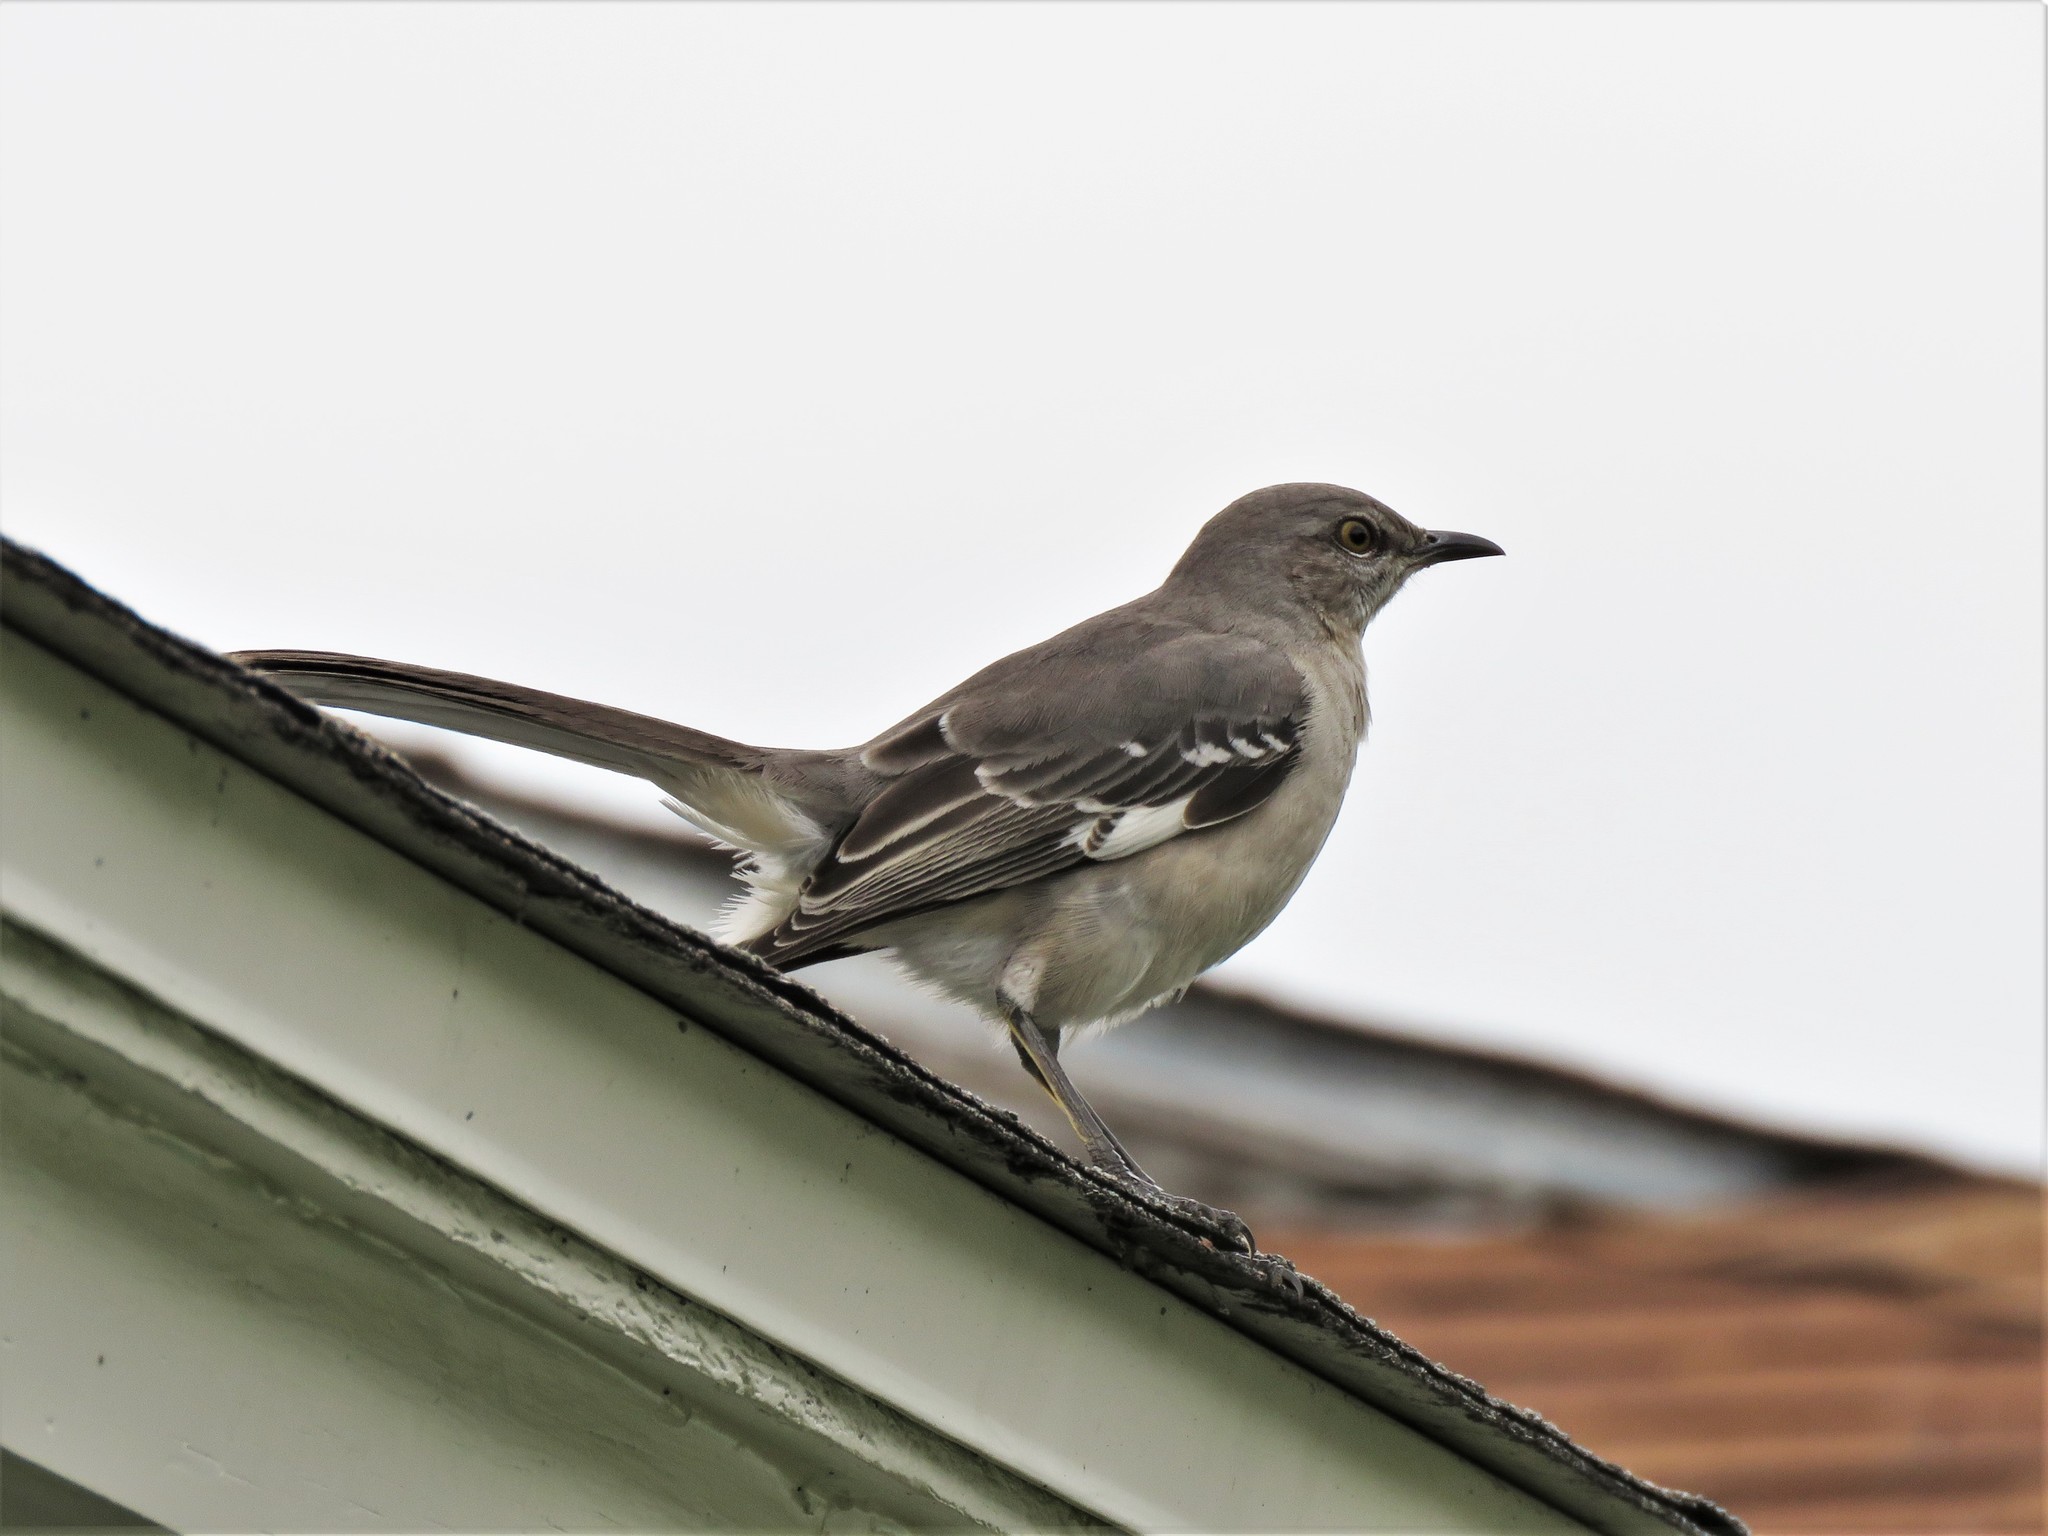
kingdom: Animalia
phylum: Chordata
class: Aves
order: Passeriformes
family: Mimidae
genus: Mimus
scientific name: Mimus polyglottos
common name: Northern mockingbird
